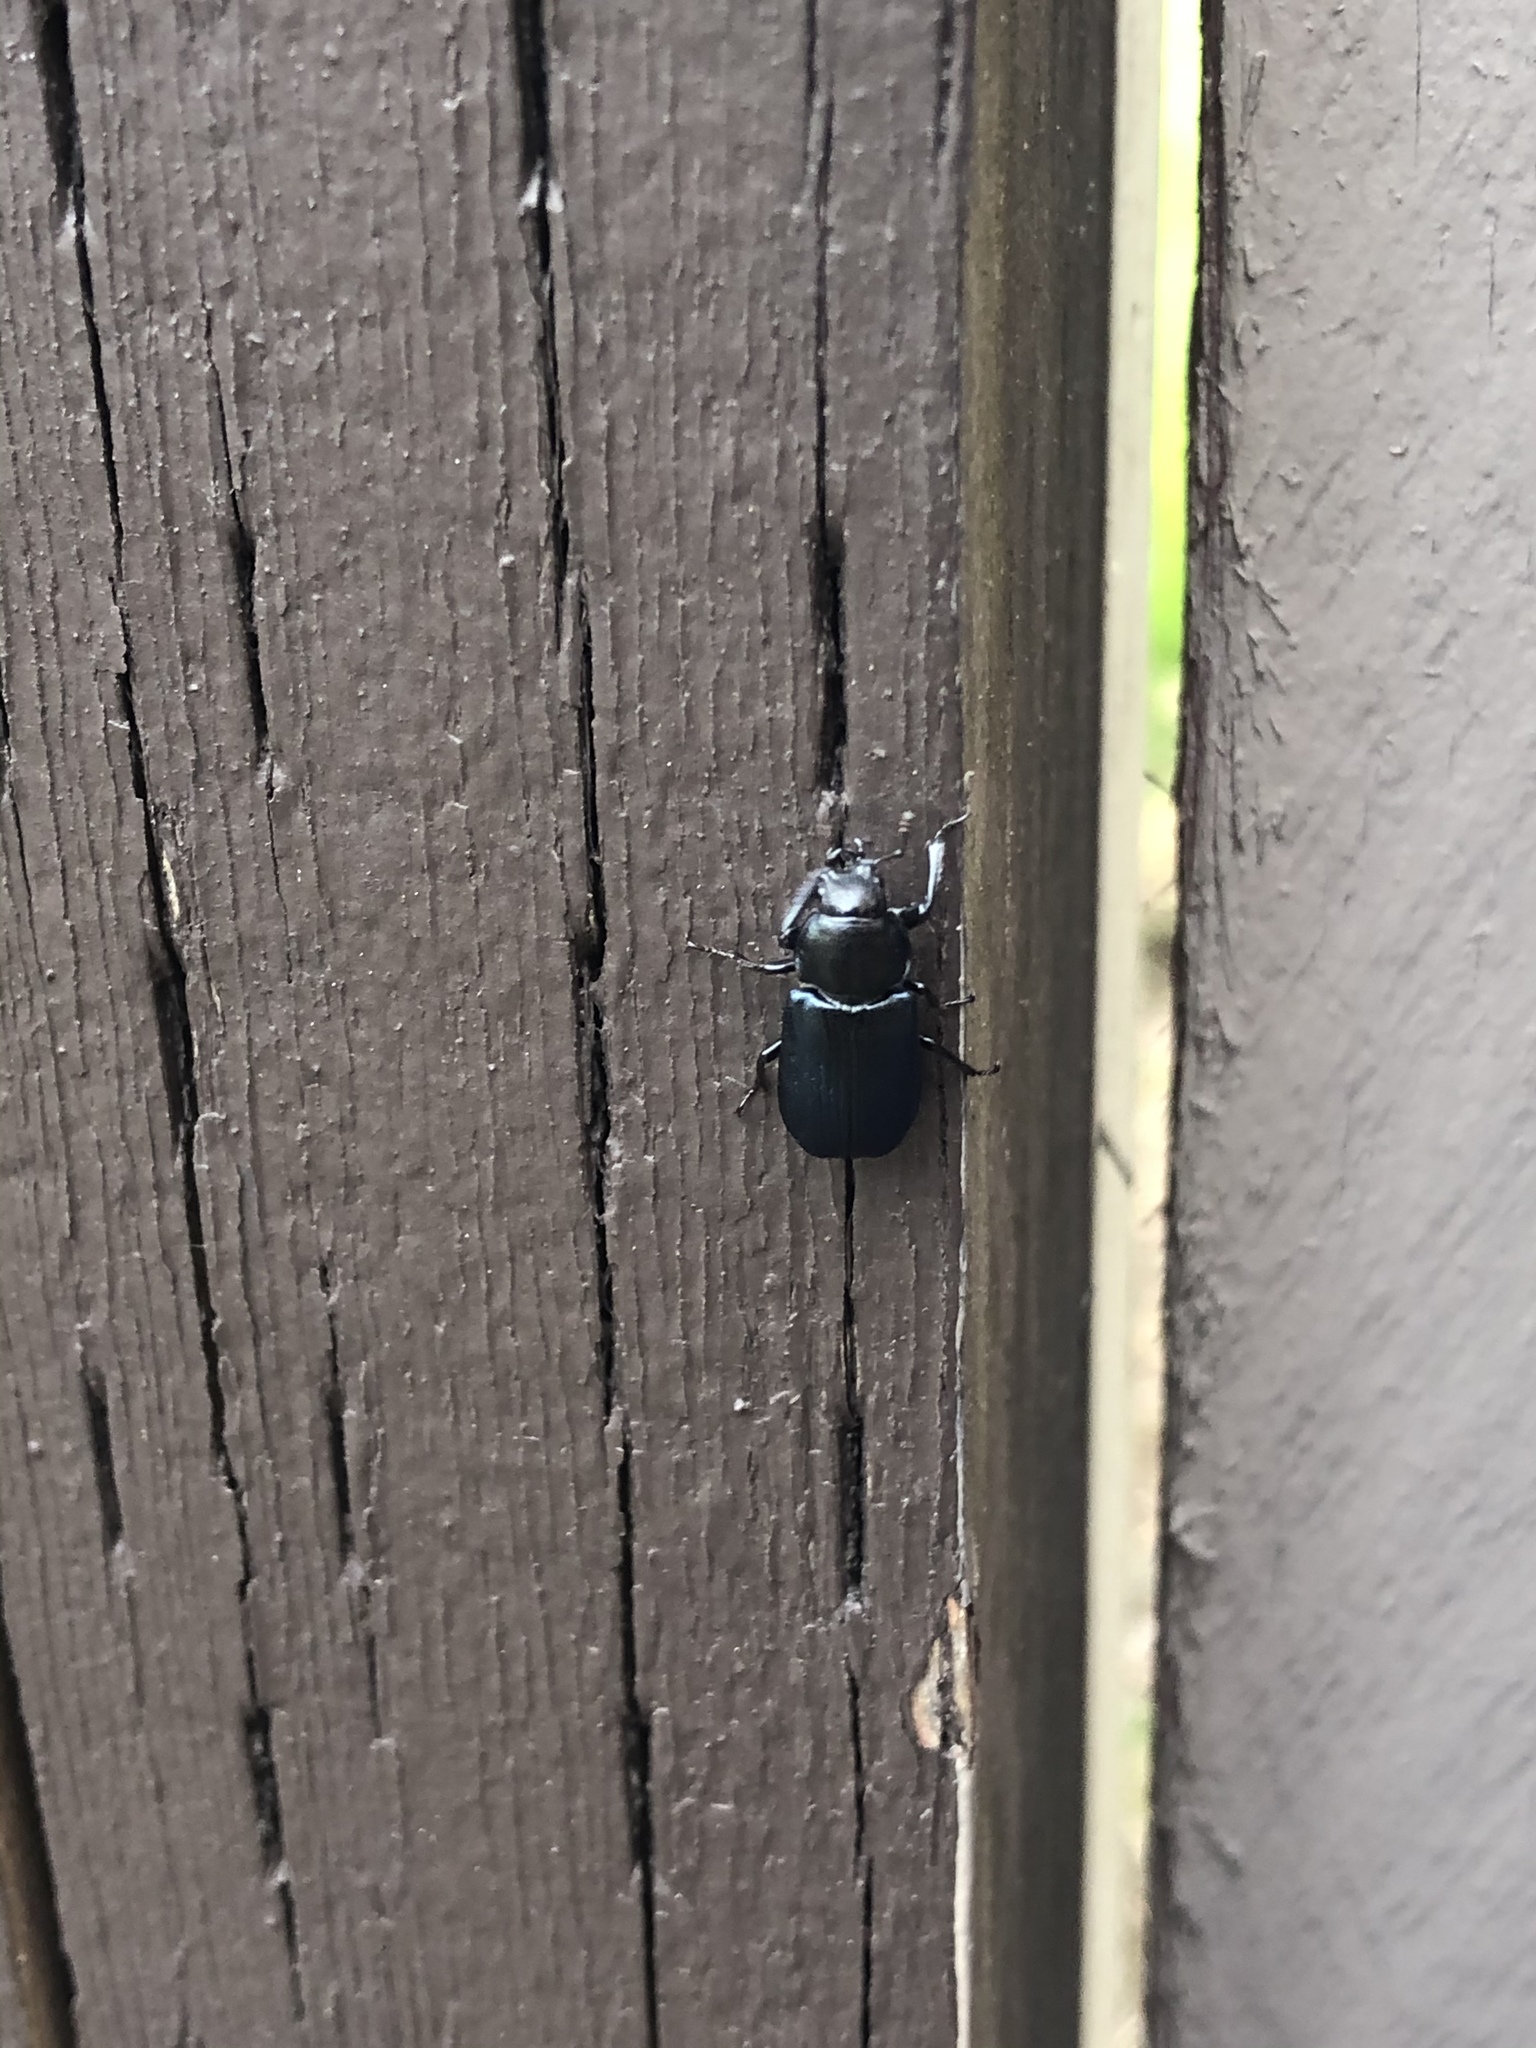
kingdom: Animalia
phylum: Arthropoda
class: Insecta
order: Coleoptera
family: Lucanidae
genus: Platycerus
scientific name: Platycerus oregonensis
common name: Oregon stag beetle
